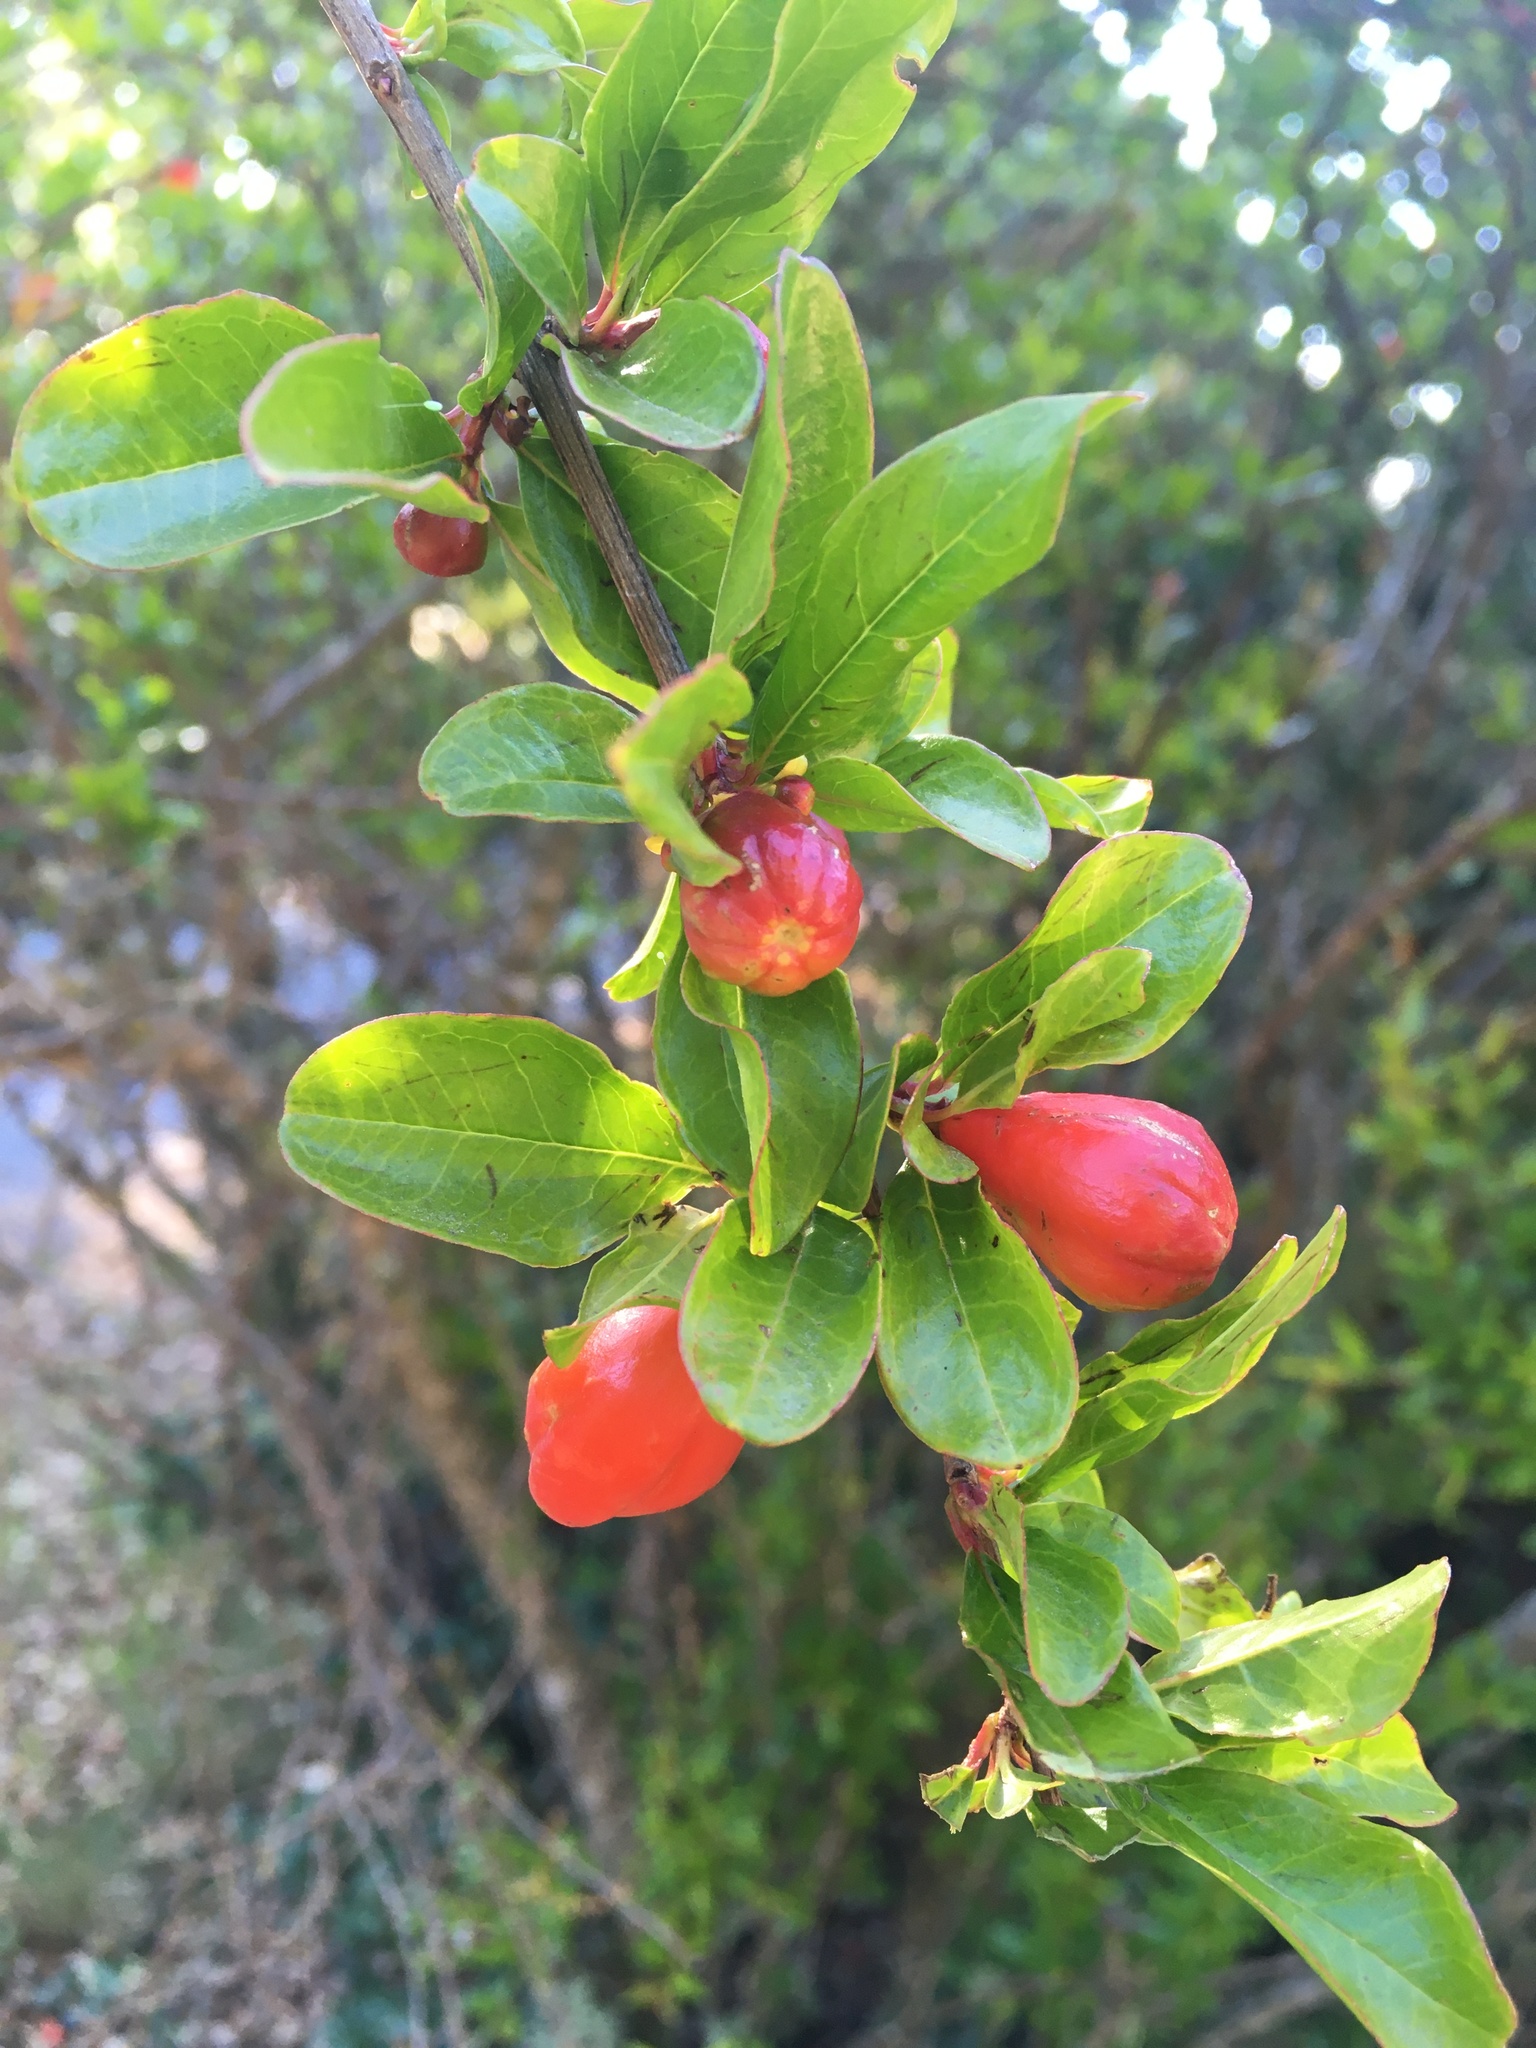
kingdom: Plantae
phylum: Tracheophyta
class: Magnoliopsida
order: Myrtales
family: Lythraceae
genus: Punica
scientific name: Punica granatum
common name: Pomegranate
